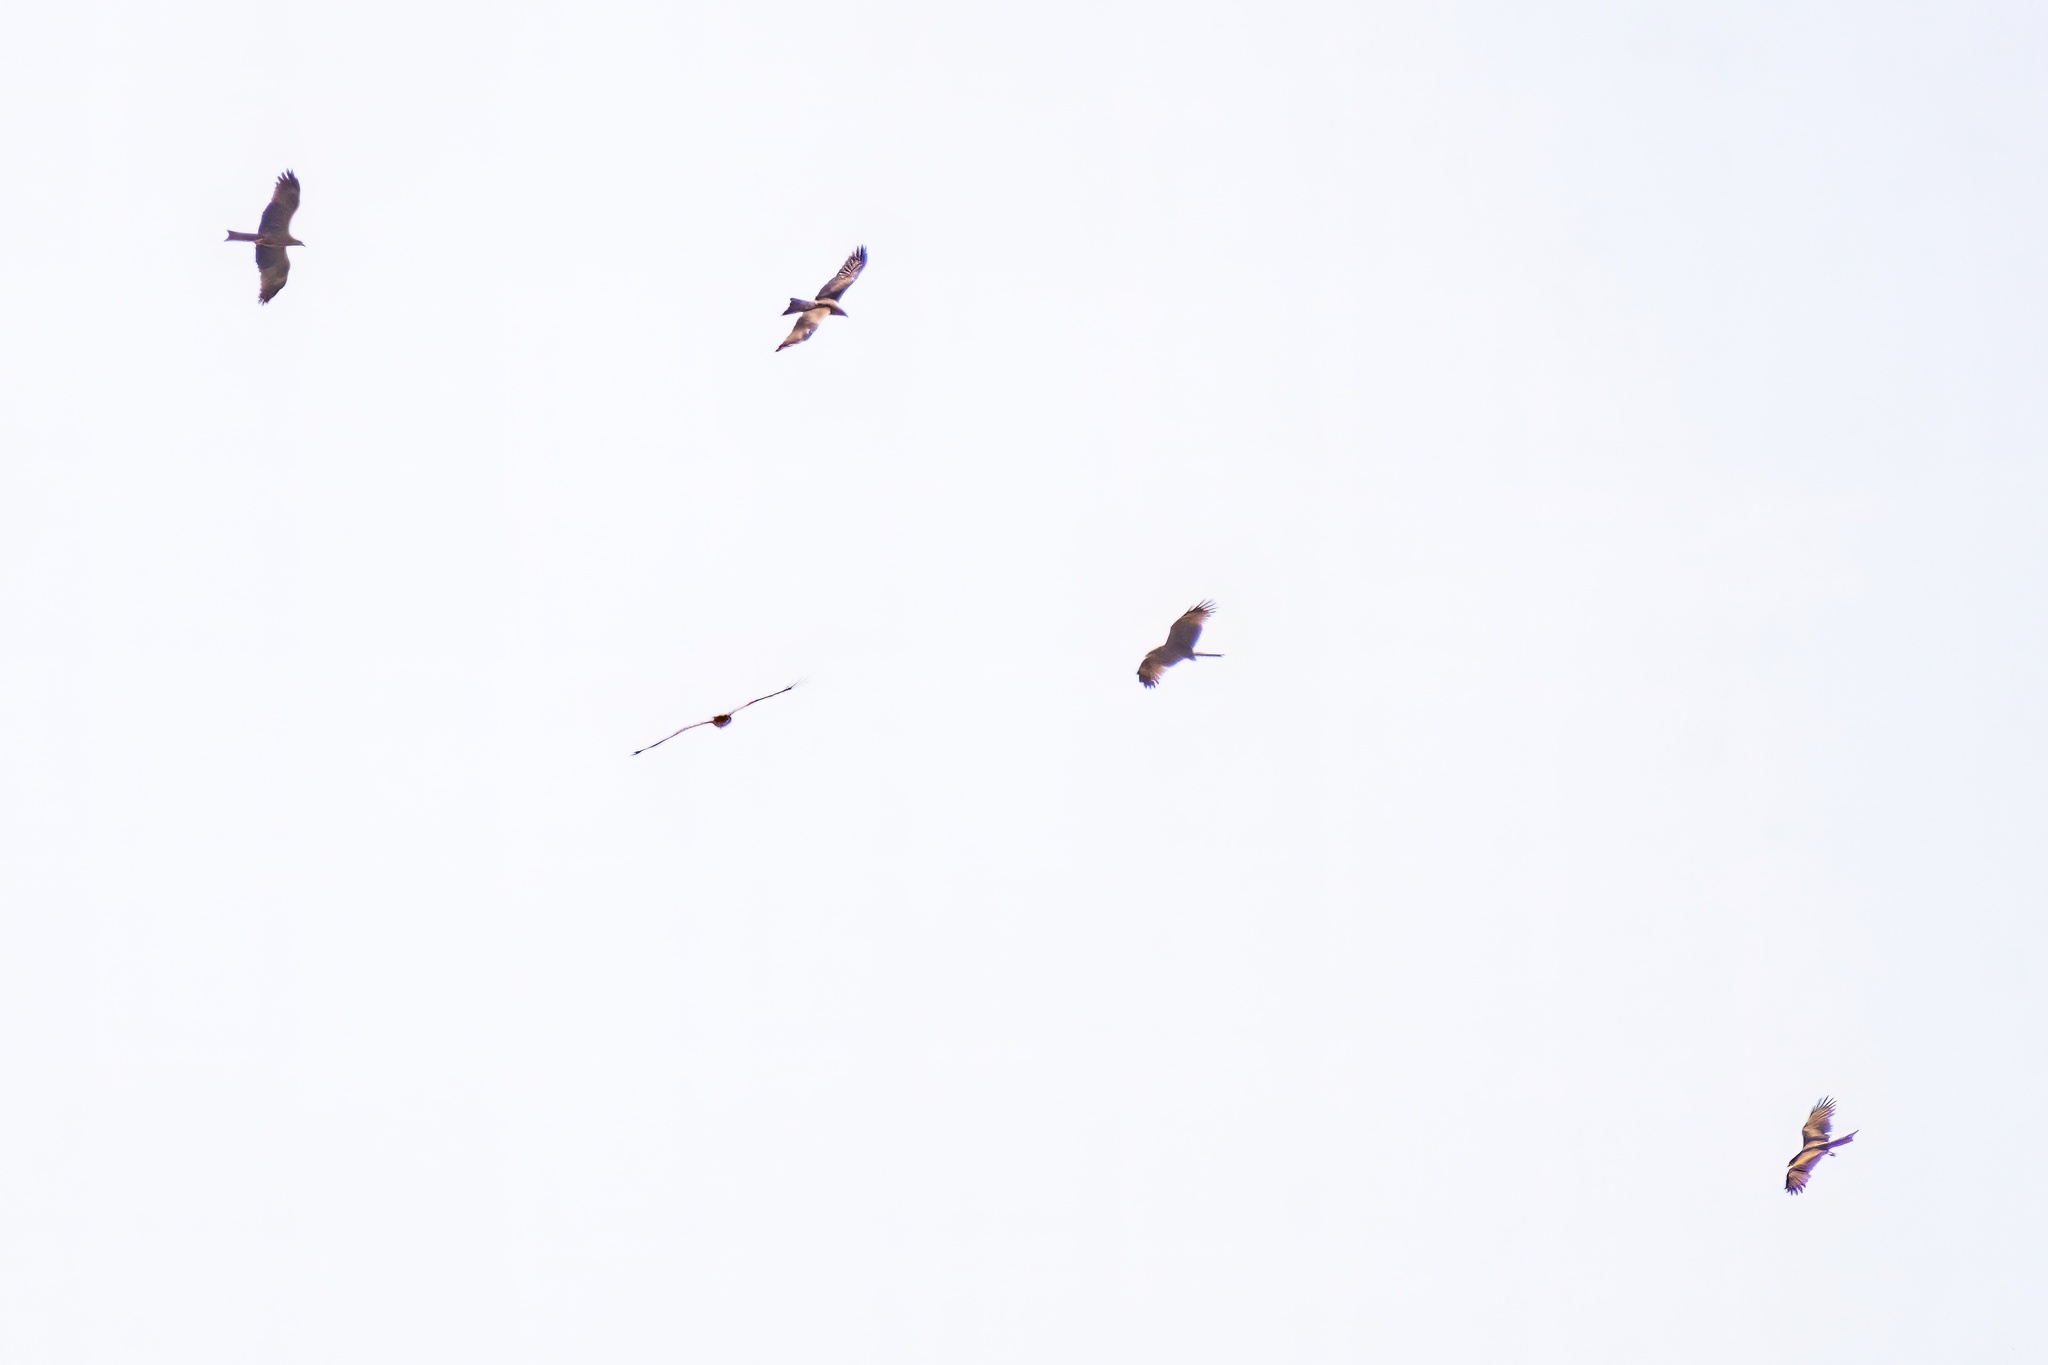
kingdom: Animalia
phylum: Chordata
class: Aves
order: Accipitriformes
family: Accipitridae
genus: Milvus
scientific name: Milvus migrans
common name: Black kite
